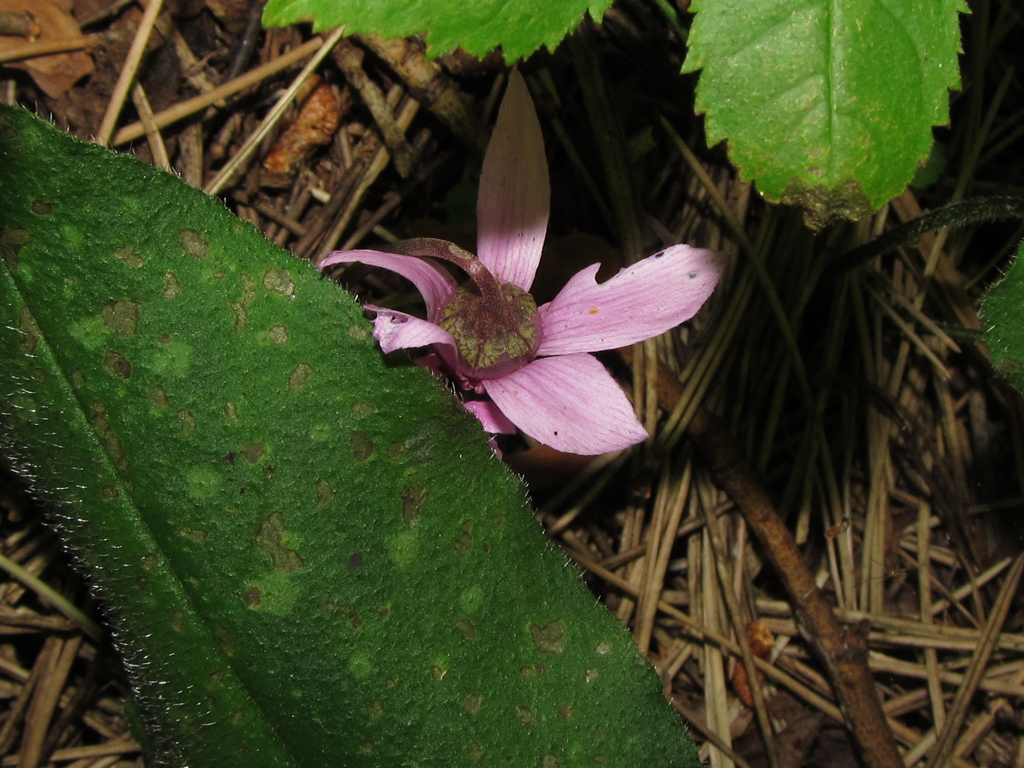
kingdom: Plantae
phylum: Tracheophyta
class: Magnoliopsida
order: Ericales
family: Primulaceae
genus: Cyclamen
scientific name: Cyclamen purpurascens
